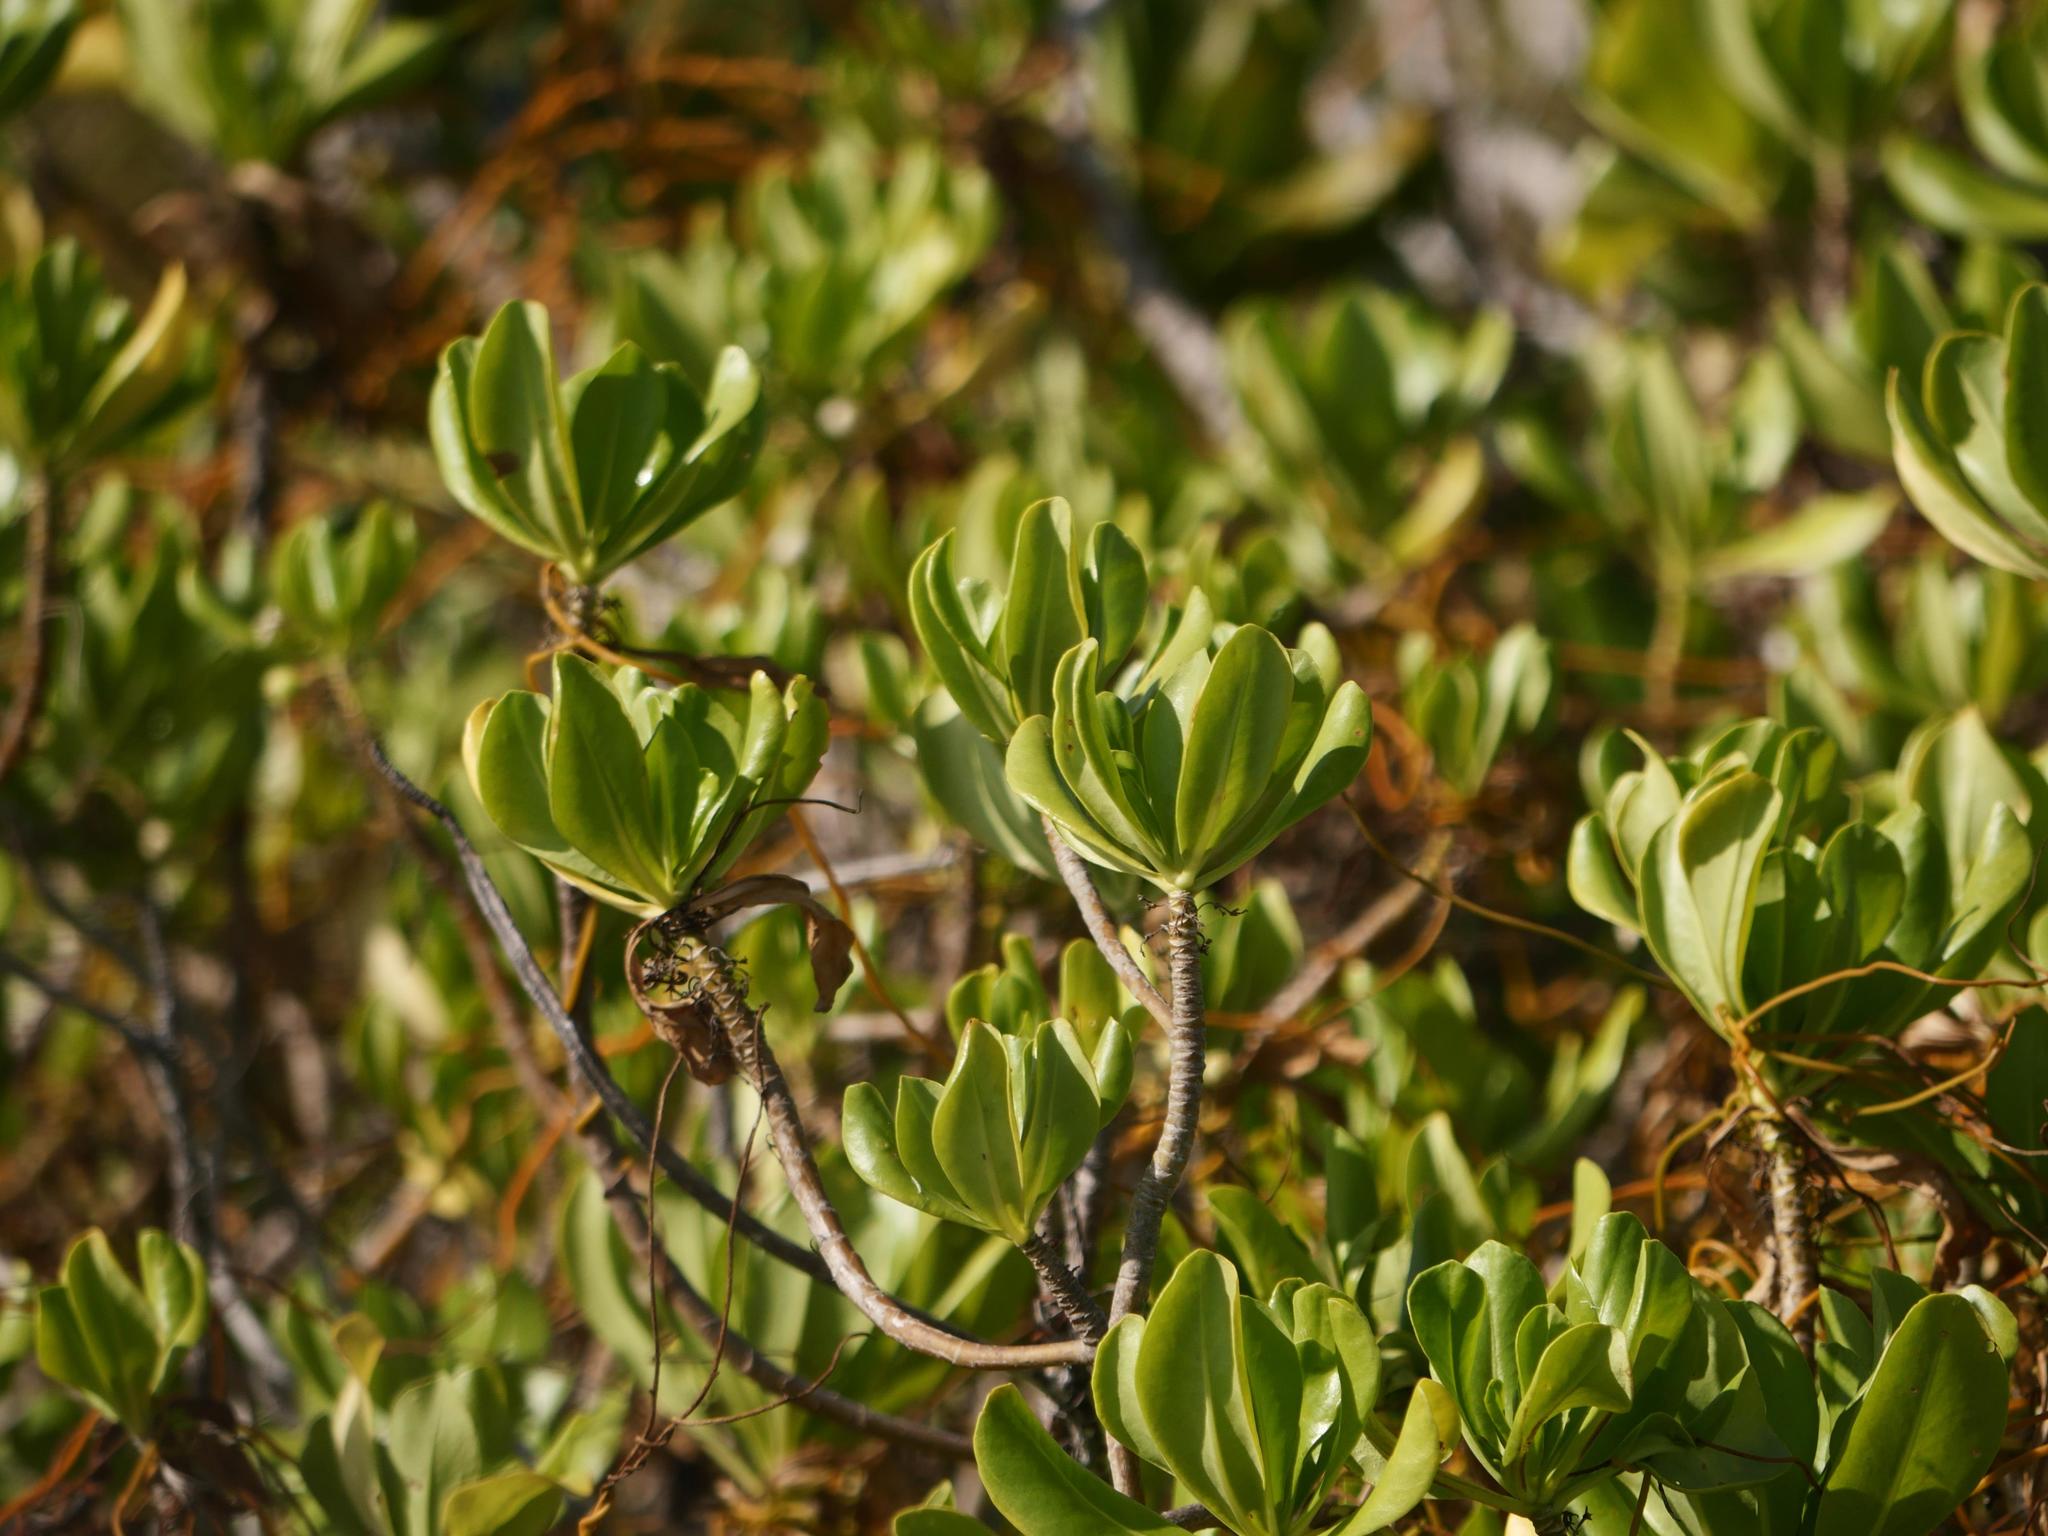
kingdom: Plantae
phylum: Tracheophyta
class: Magnoliopsida
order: Asterales
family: Goodeniaceae
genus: Scaevola
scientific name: Scaevola taccada
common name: Sea lettucetree
